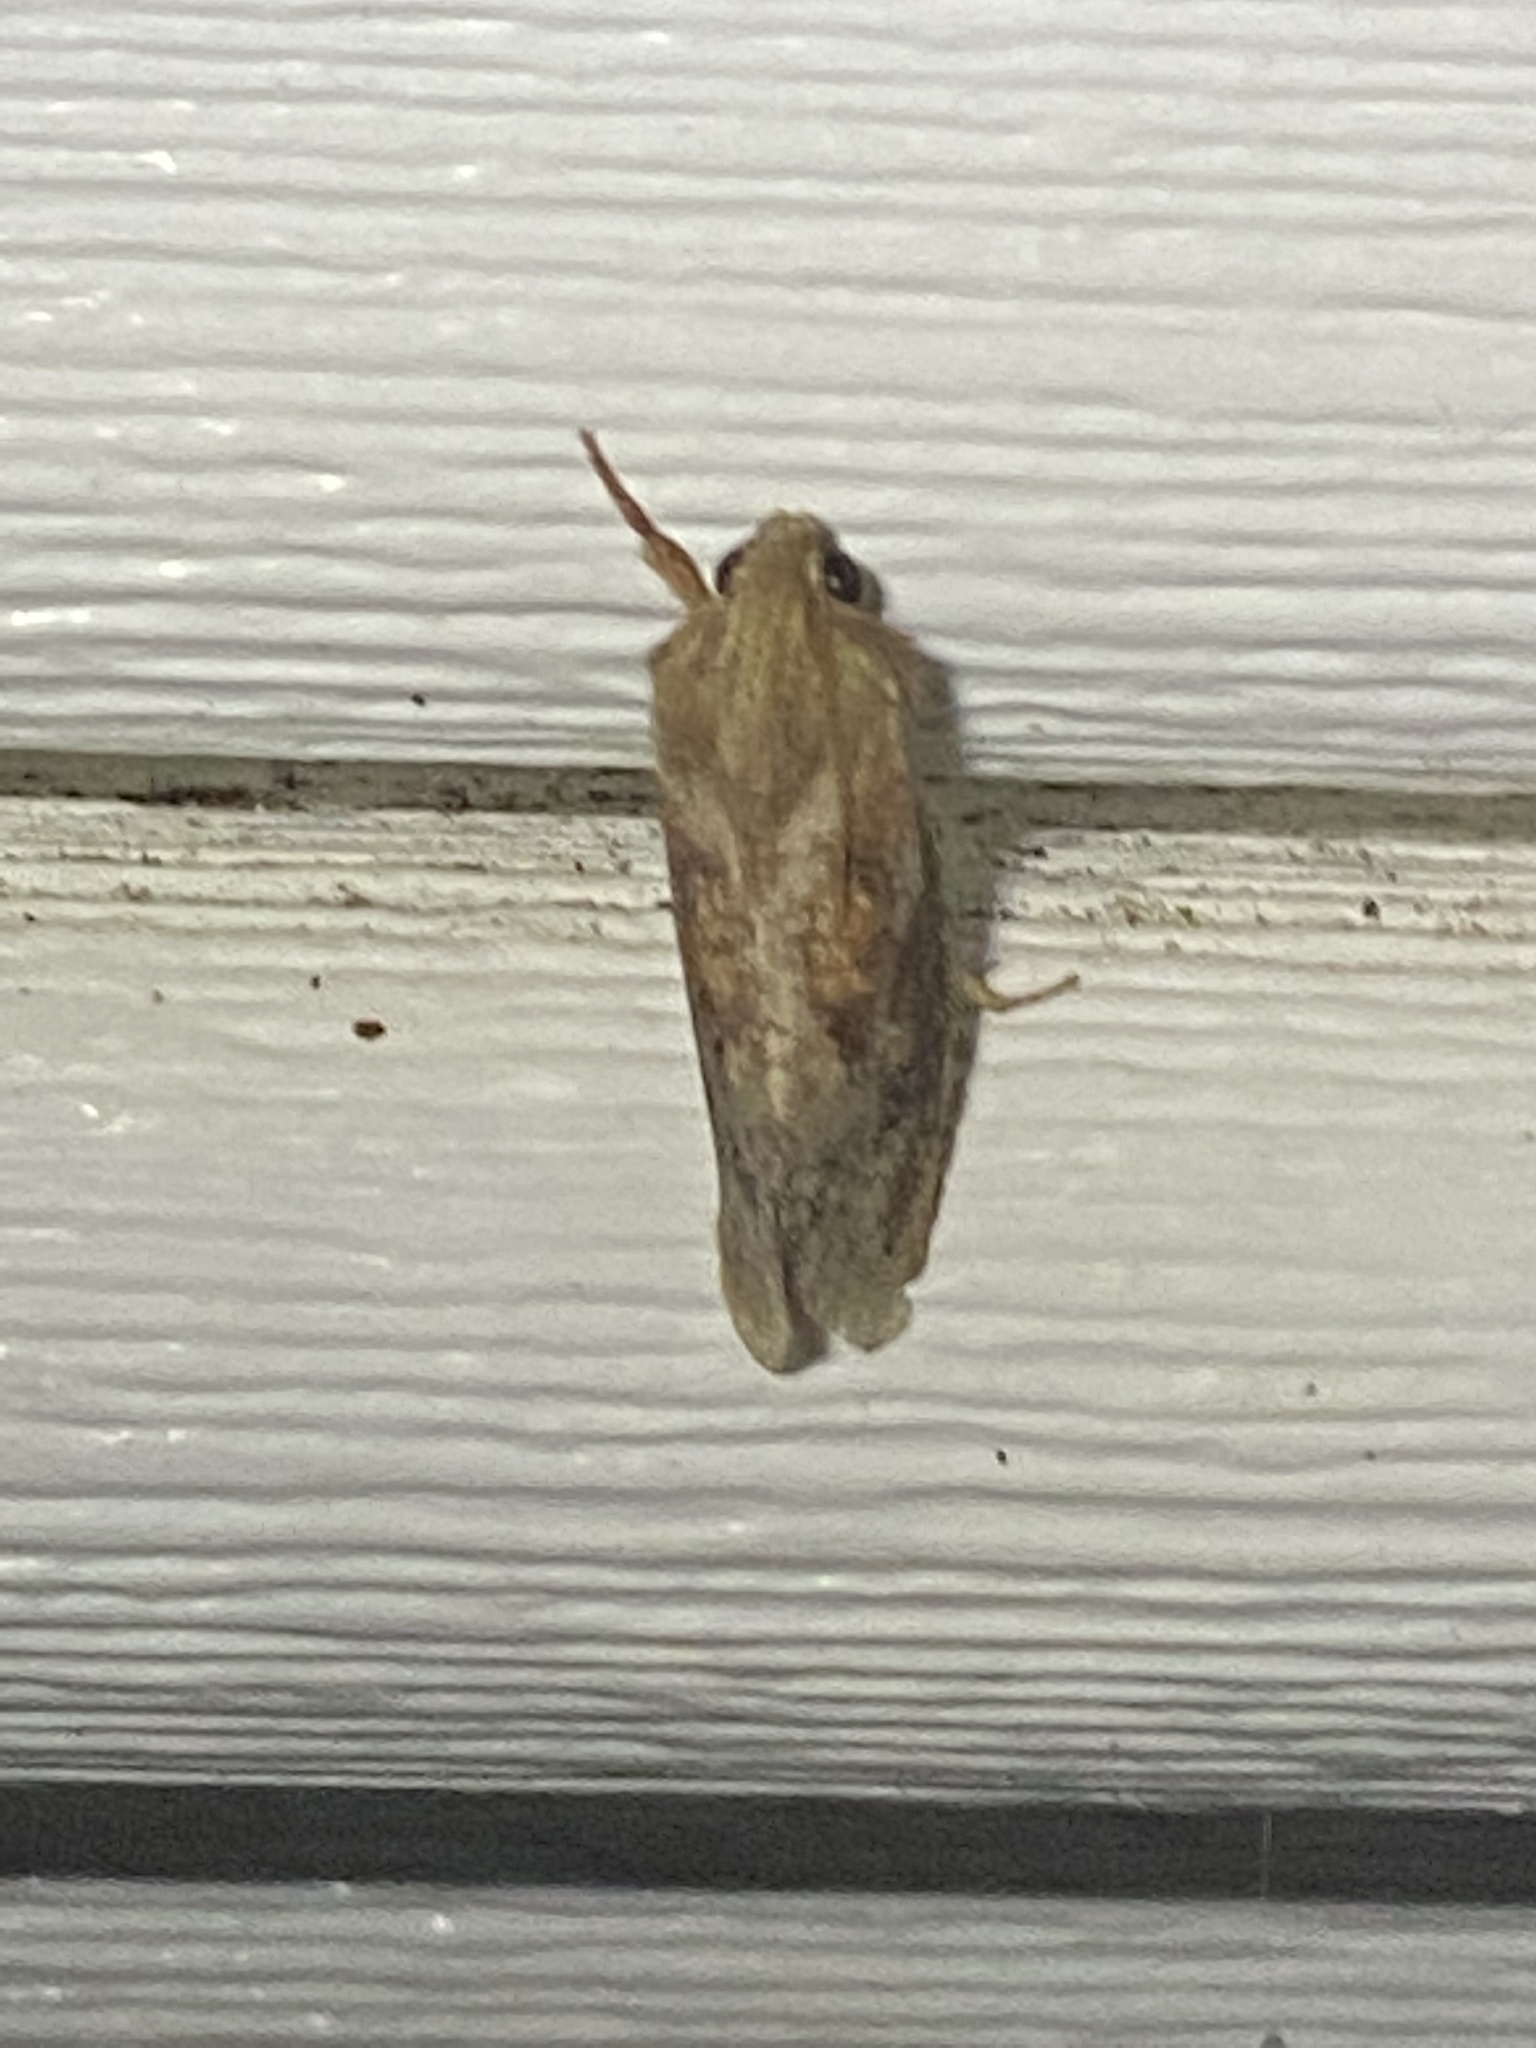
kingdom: Animalia
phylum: Arthropoda
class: Insecta
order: Lepidoptera
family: Tineidae
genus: Acrolophus
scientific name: Acrolophus plumifrontella
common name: Eastern grass tubeworm moth
